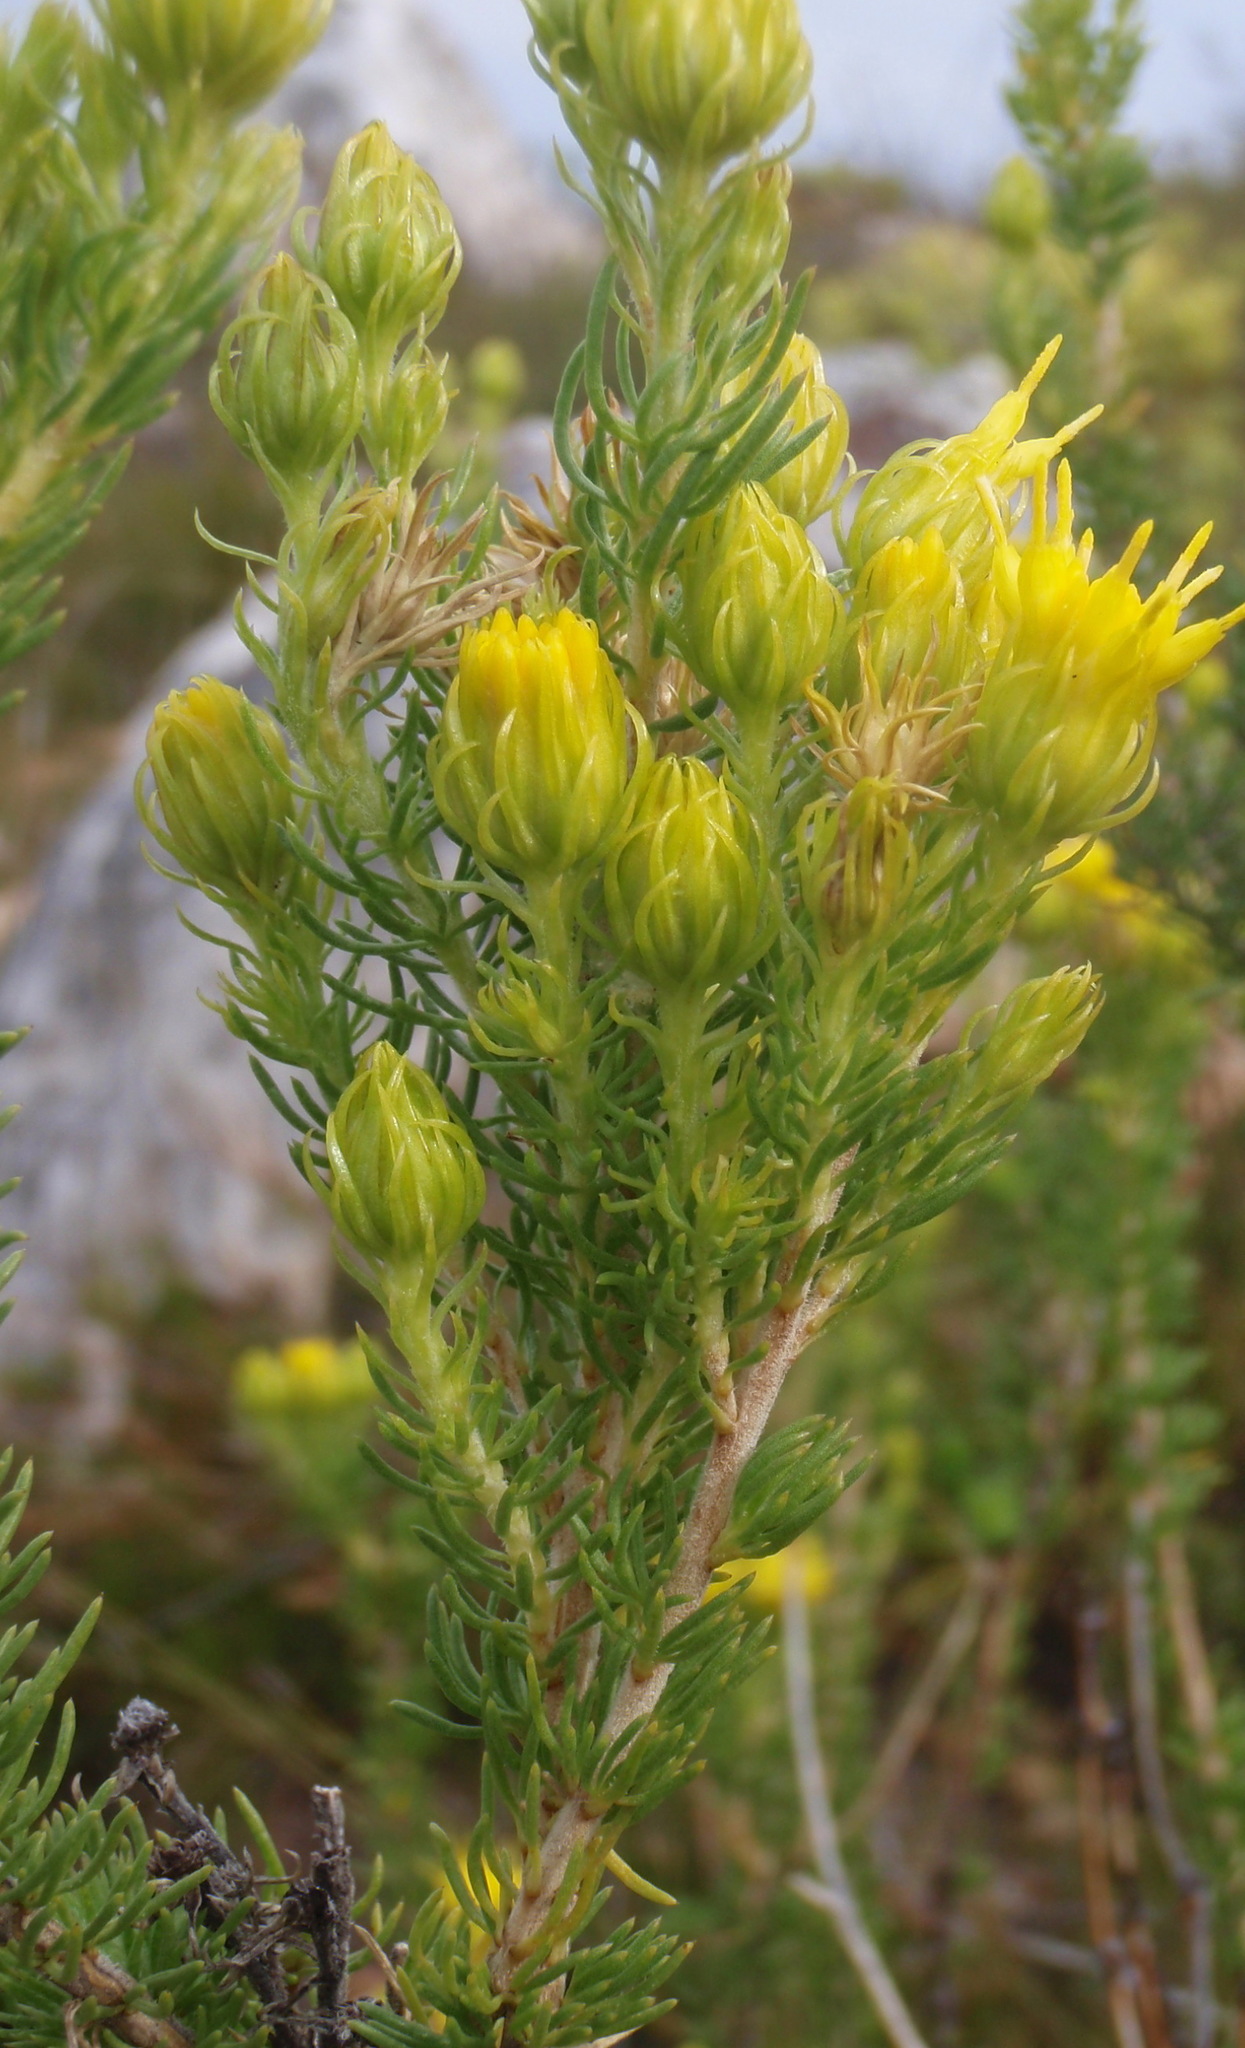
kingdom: Plantae
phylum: Tracheophyta
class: Magnoliopsida
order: Asterales
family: Asteraceae
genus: Pteronia
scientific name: Pteronia camphorata
